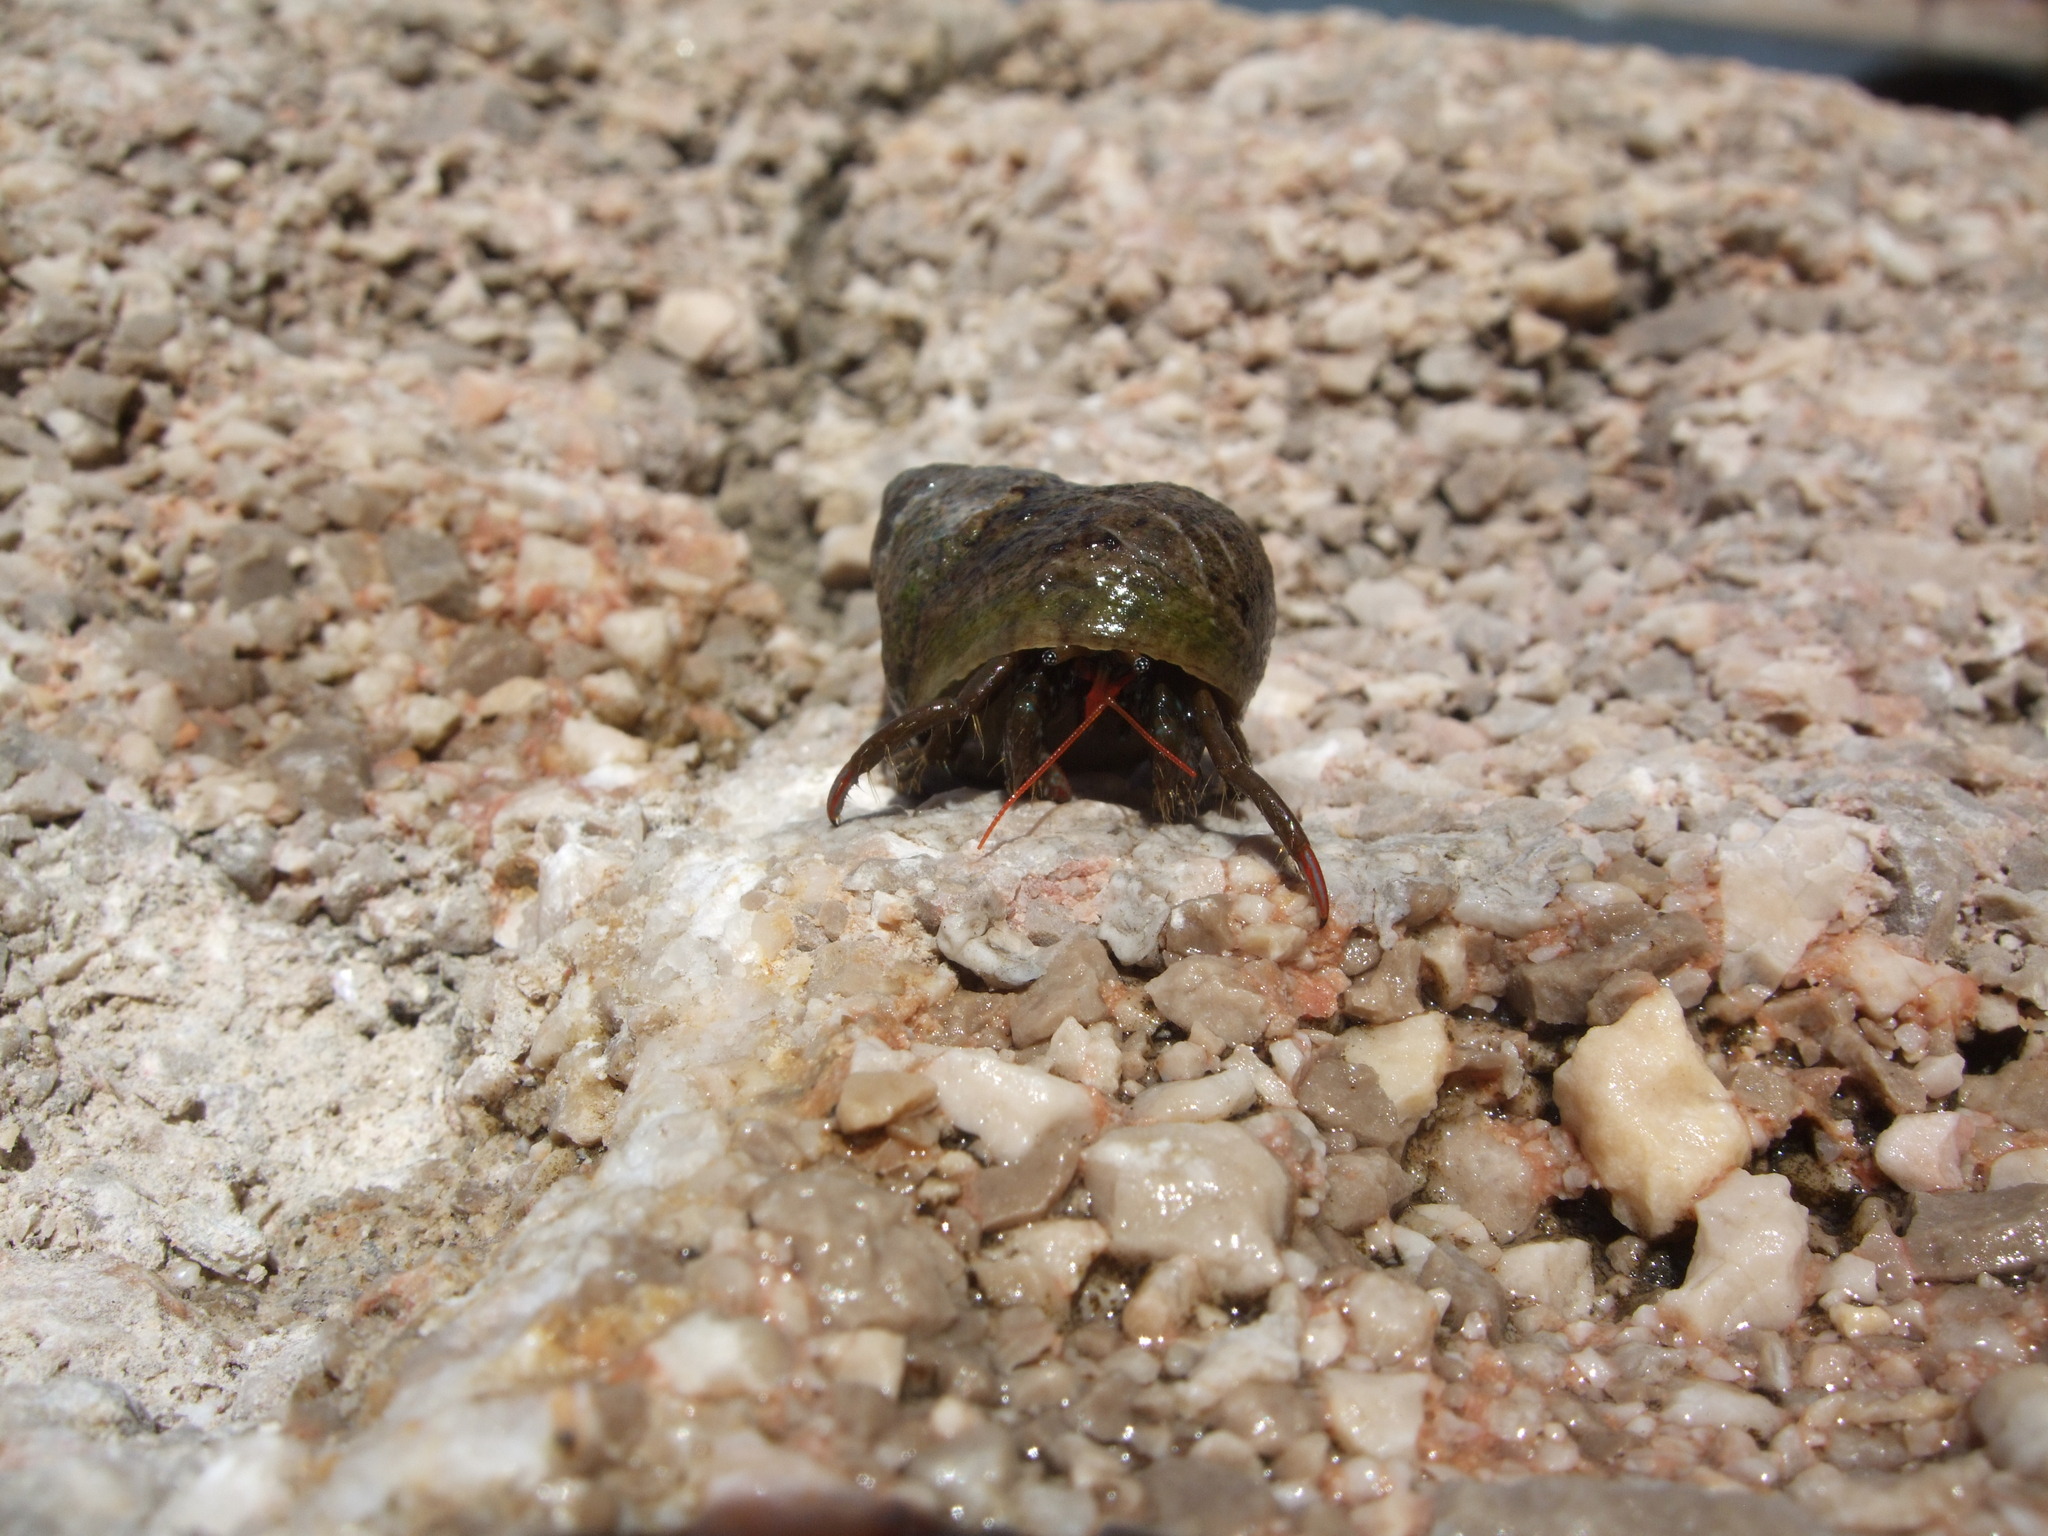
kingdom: Animalia
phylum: Arthropoda
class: Malacostraca
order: Decapoda
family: Diogenidae
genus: Clibanarius
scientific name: Clibanarius erythropus
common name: Hermit crab
